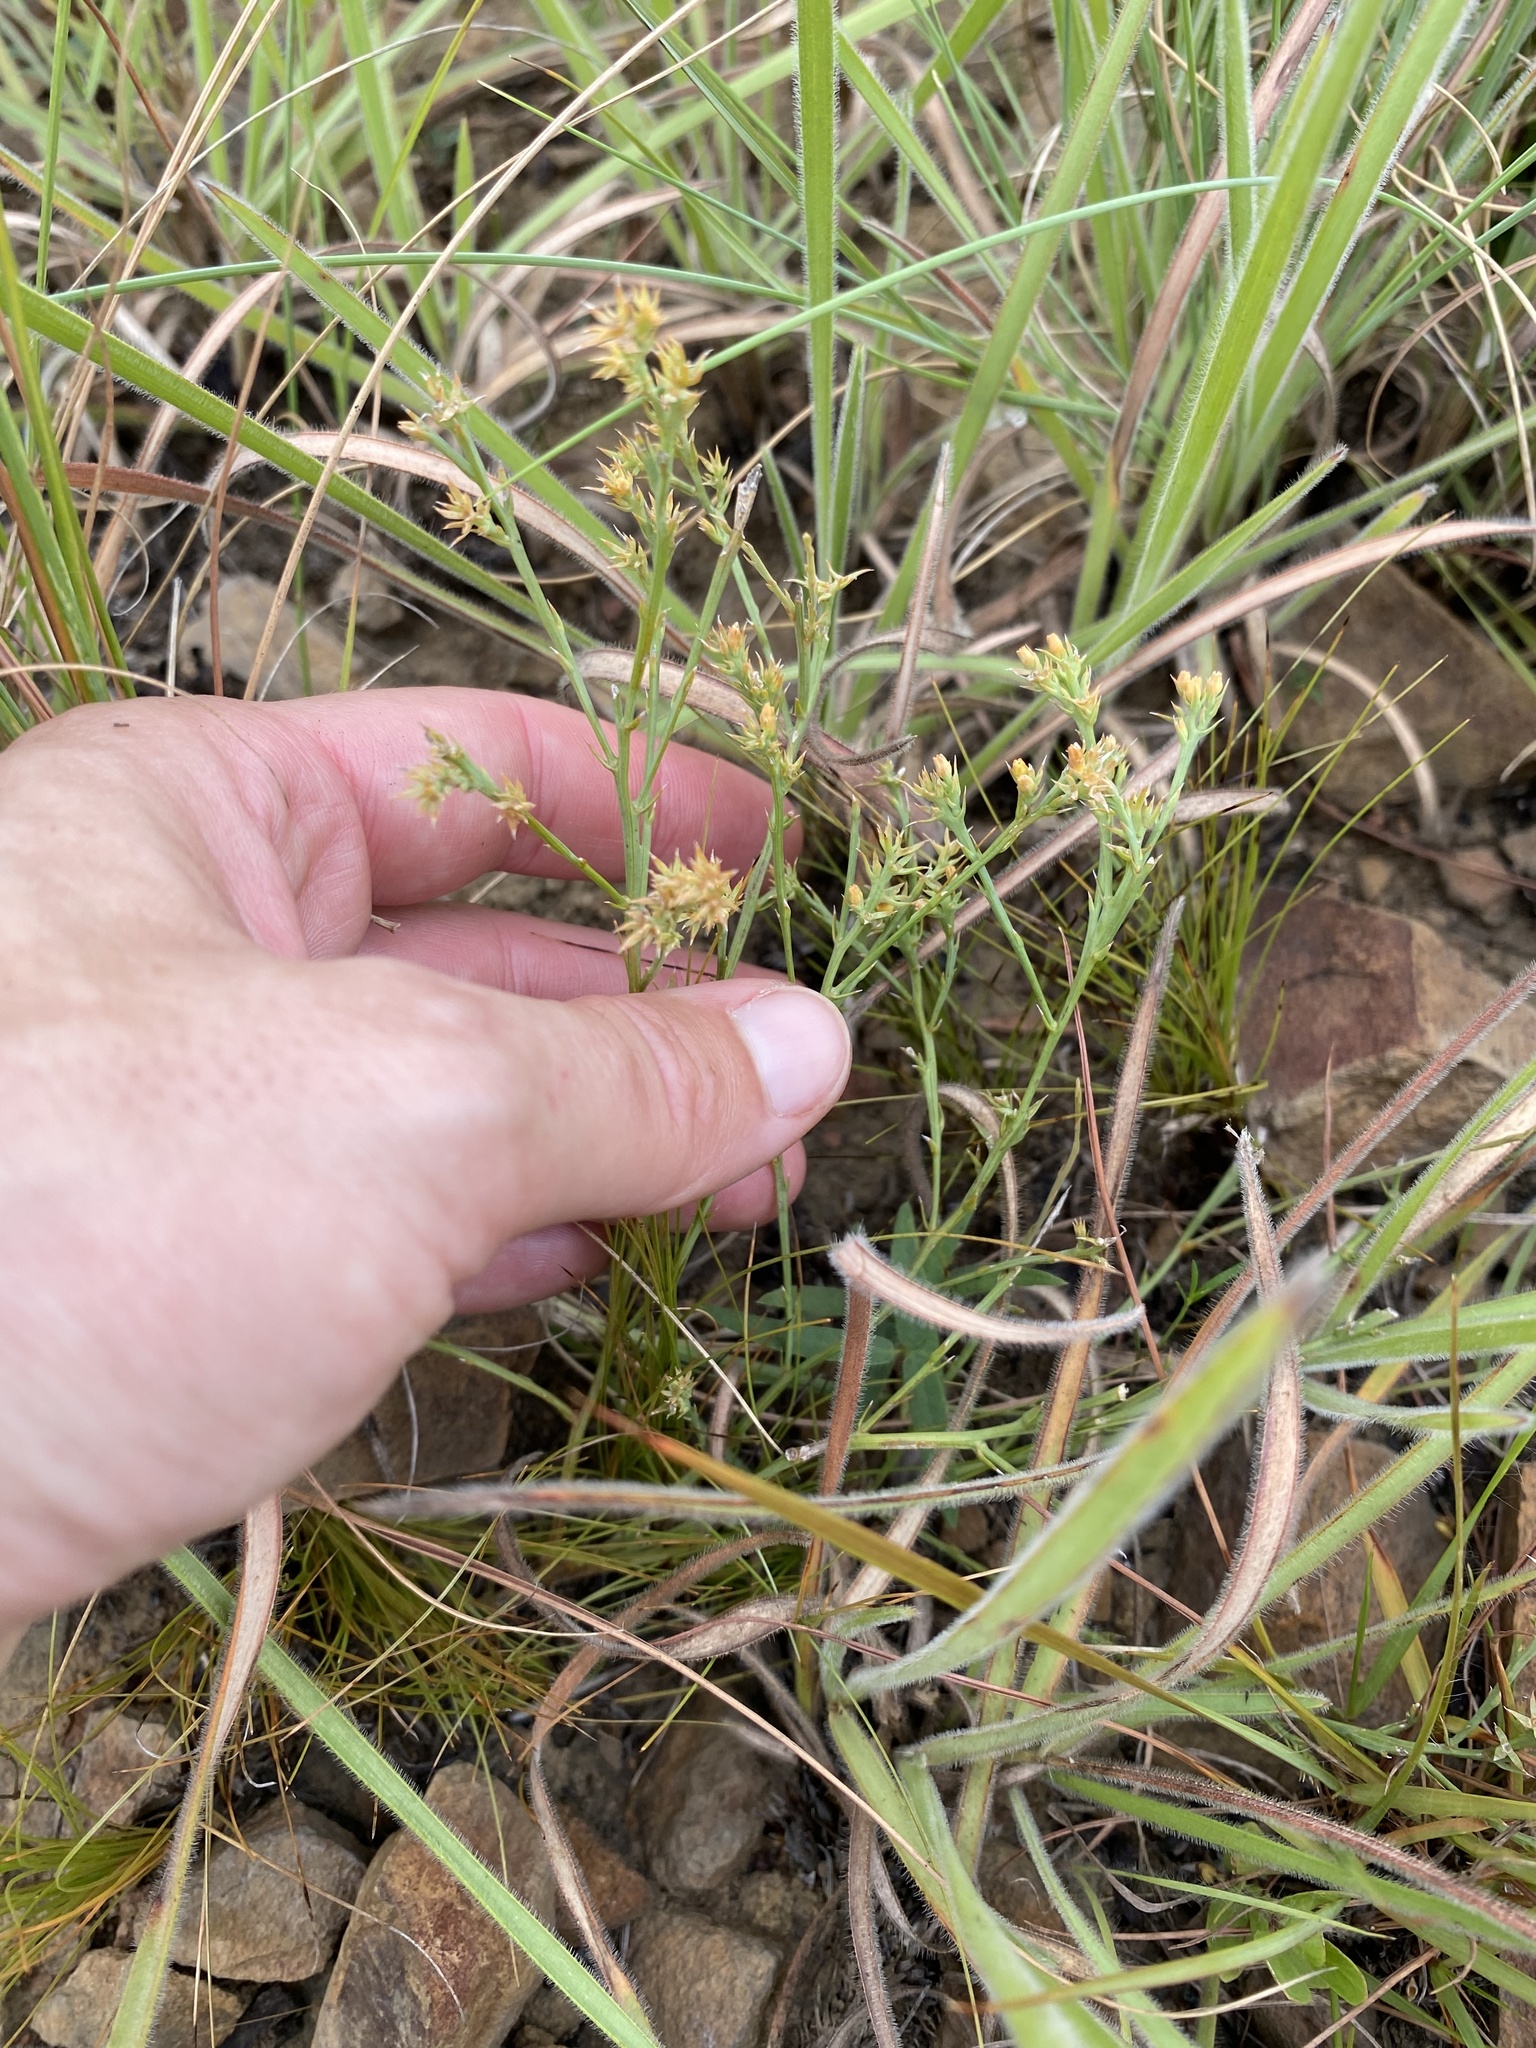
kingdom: Plantae
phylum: Tracheophyta
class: Magnoliopsida
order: Santalales
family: Thesiaceae
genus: Thesium
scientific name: Thesium jeaniae
